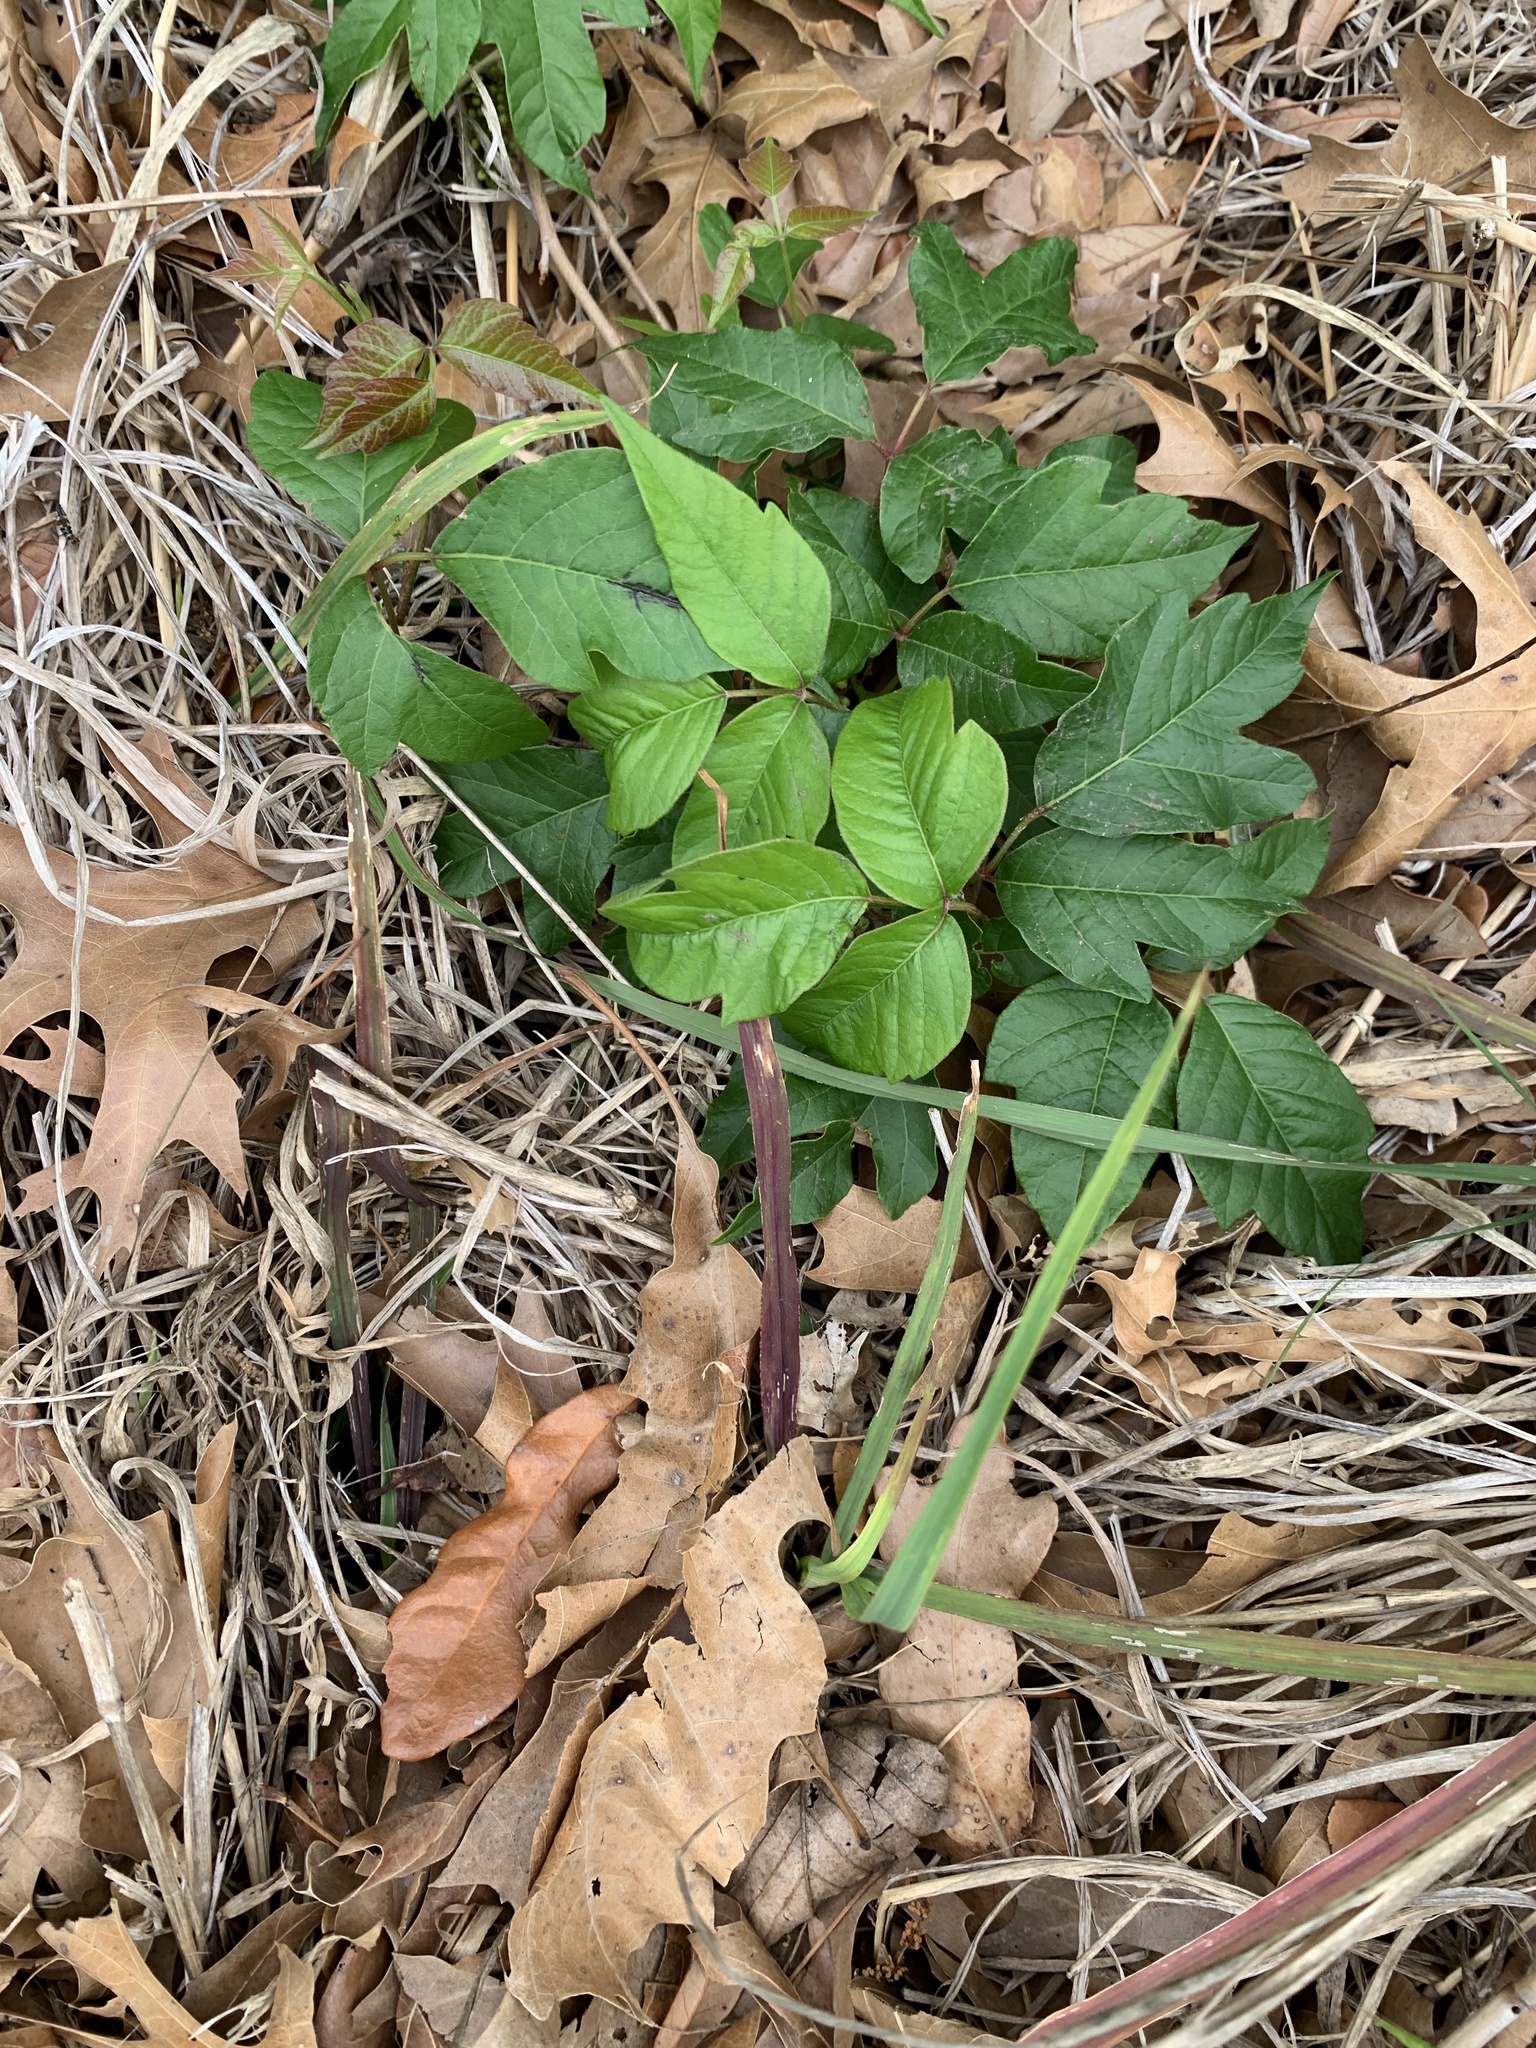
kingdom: Plantae
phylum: Tracheophyta
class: Magnoliopsida
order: Sapindales
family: Anacardiaceae
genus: Toxicodendron
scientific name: Toxicodendron radicans
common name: Poison ivy
